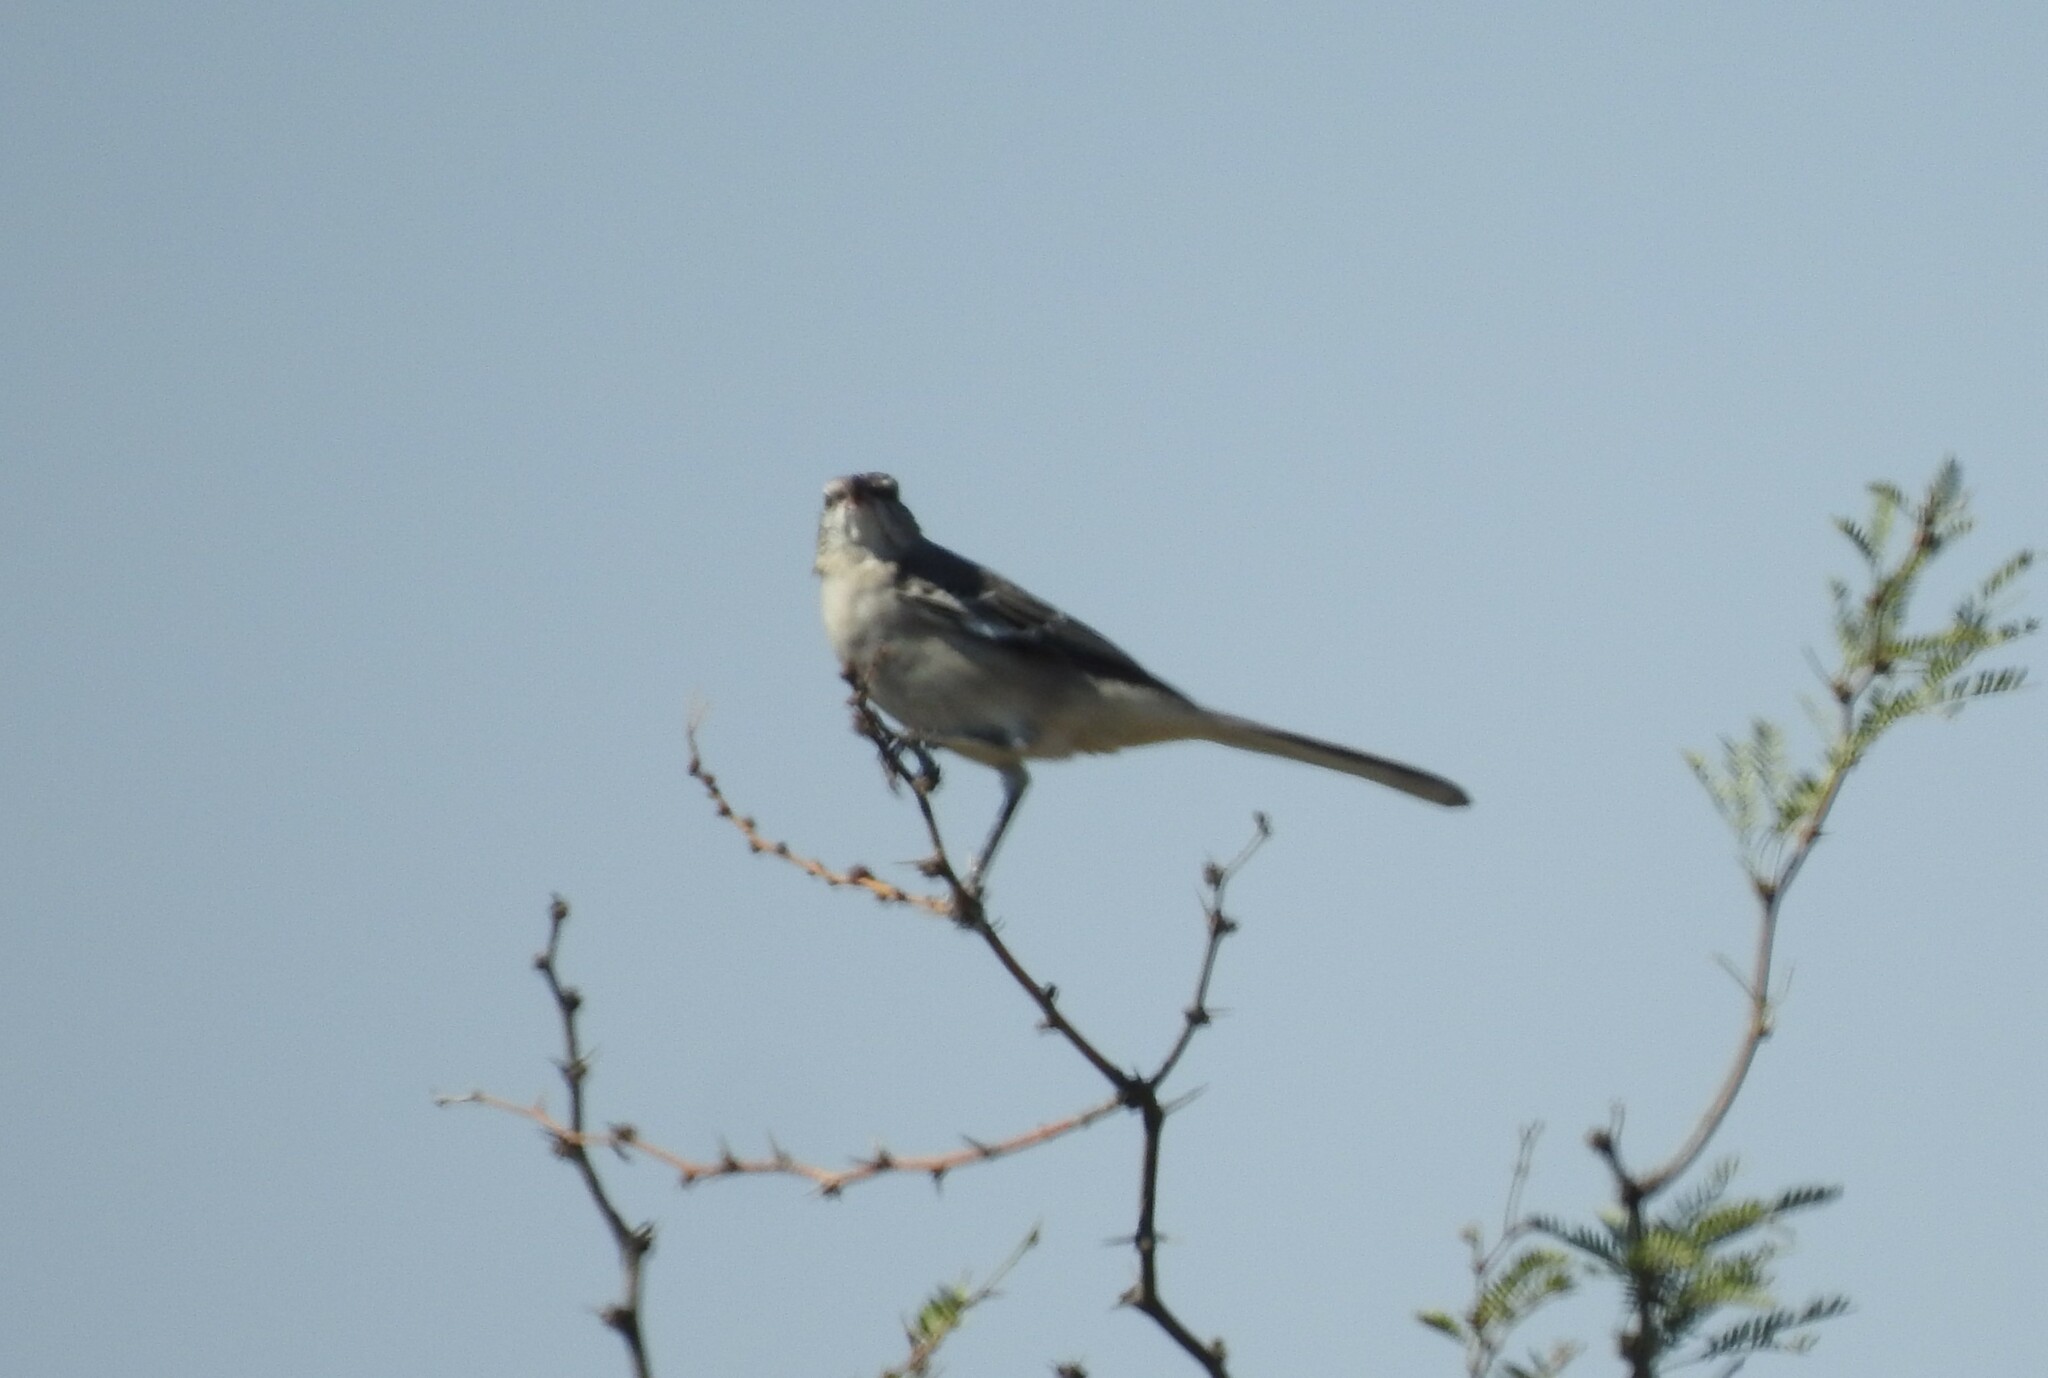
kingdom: Animalia
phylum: Chordata
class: Aves
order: Passeriformes
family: Mimidae
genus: Mimus
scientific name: Mimus polyglottos
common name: Northern mockingbird
